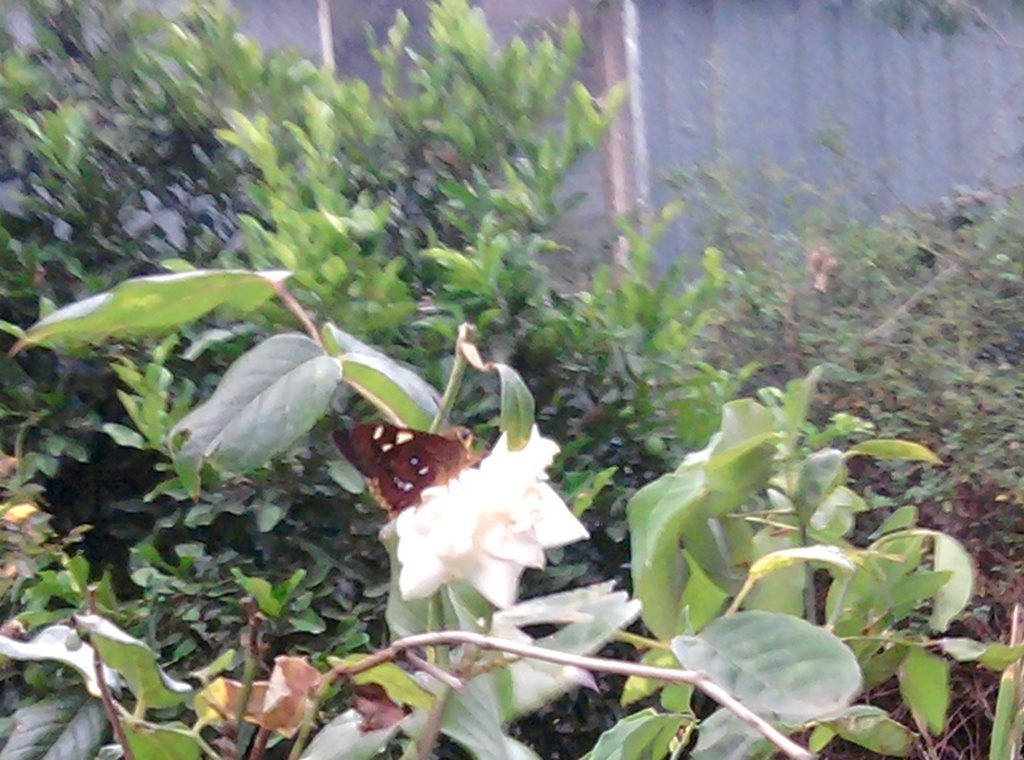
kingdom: Animalia
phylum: Arthropoda
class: Insecta
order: Lepidoptera
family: Hesperiidae
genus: Trapezites
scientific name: Trapezites symmomus
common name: Splendid ochre
